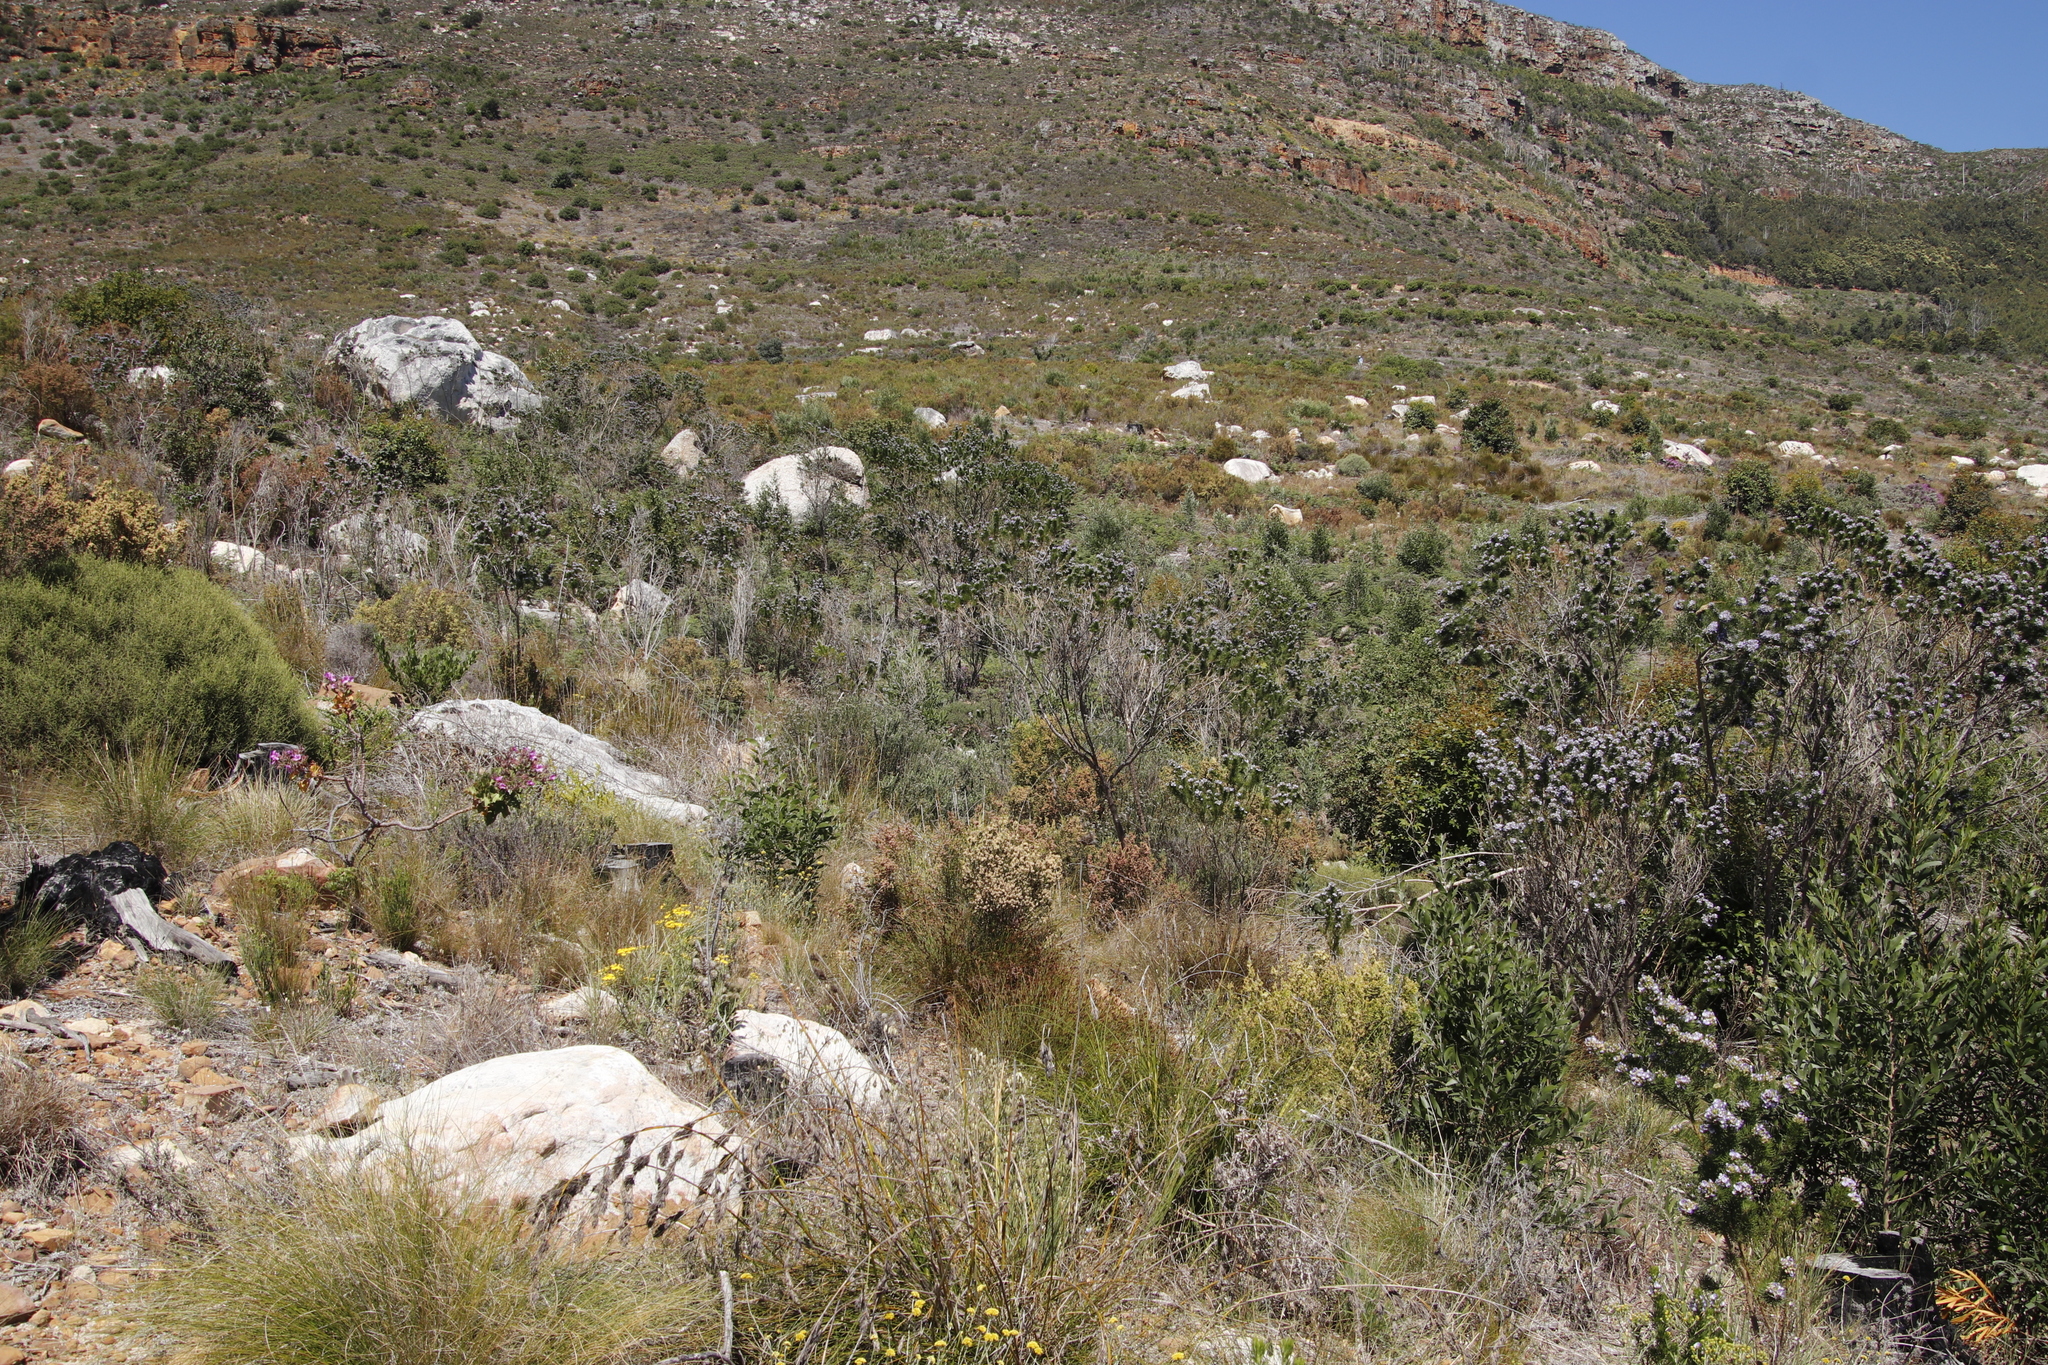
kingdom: Plantae
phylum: Tracheophyta
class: Magnoliopsida
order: Fabales
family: Fabaceae
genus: Psoralea
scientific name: Psoralea pinnata
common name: African scurfpea
